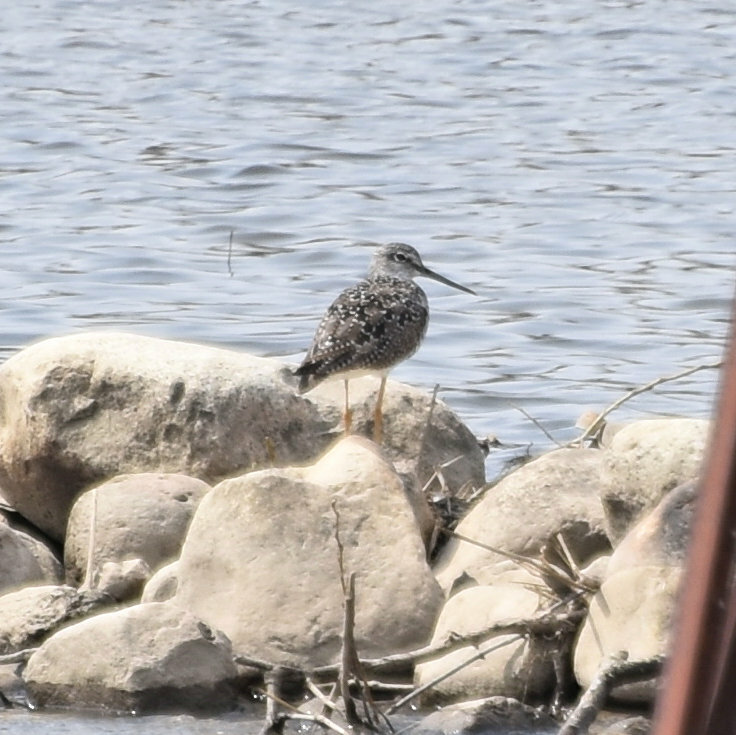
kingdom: Animalia
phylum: Chordata
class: Aves
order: Charadriiformes
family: Scolopacidae
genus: Tringa
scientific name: Tringa melanoleuca
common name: Greater yellowlegs
